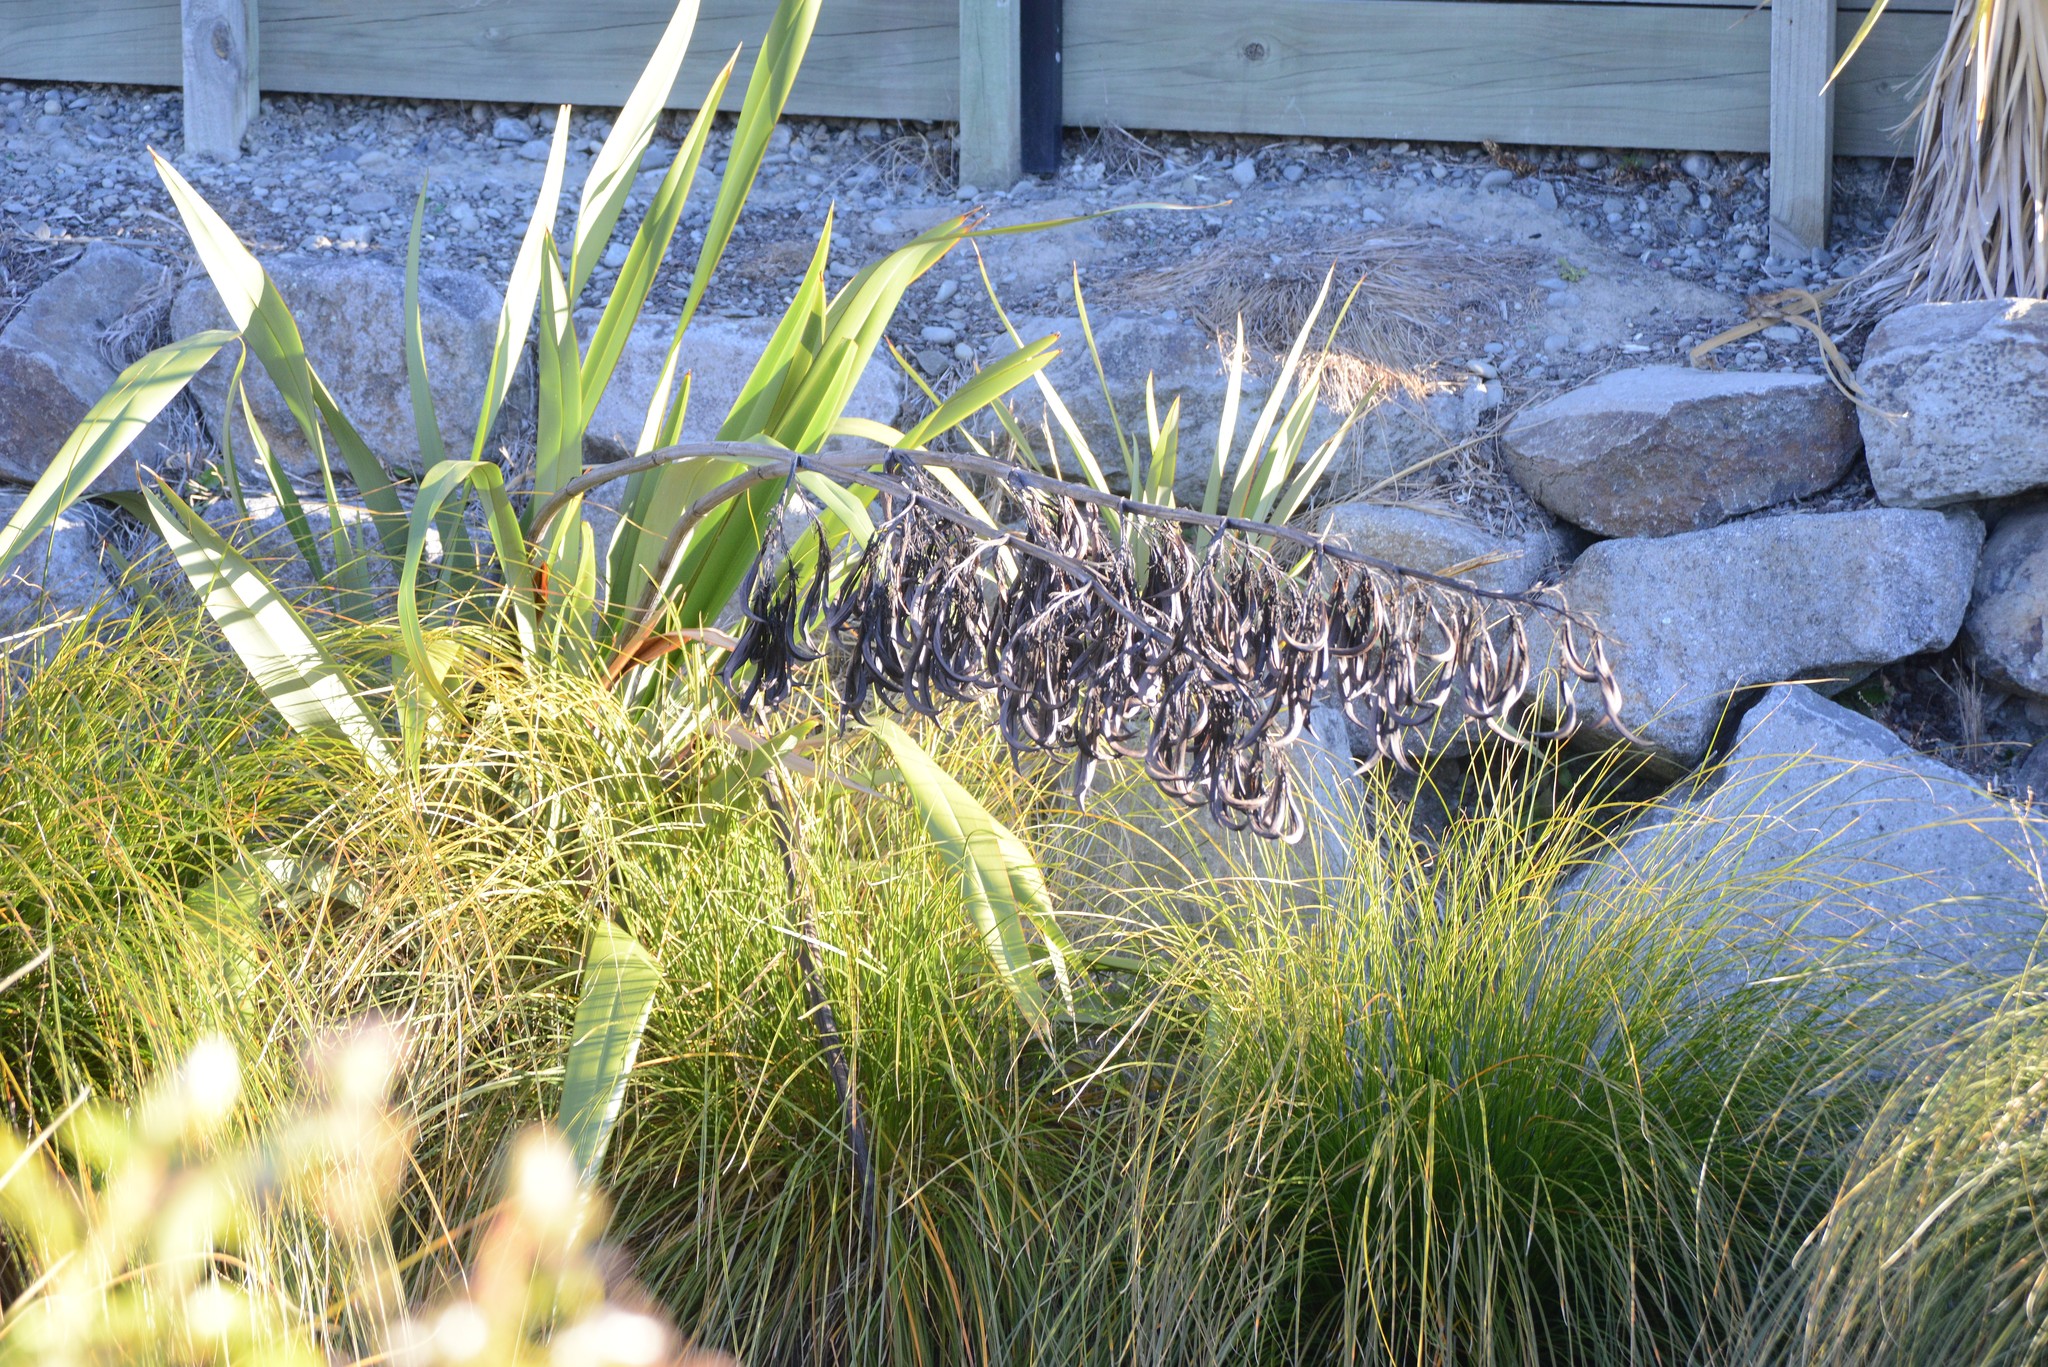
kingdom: Plantae
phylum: Tracheophyta
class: Liliopsida
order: Asparagales
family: Asphodelaceae
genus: Phormium
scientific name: Phormium colensoi
